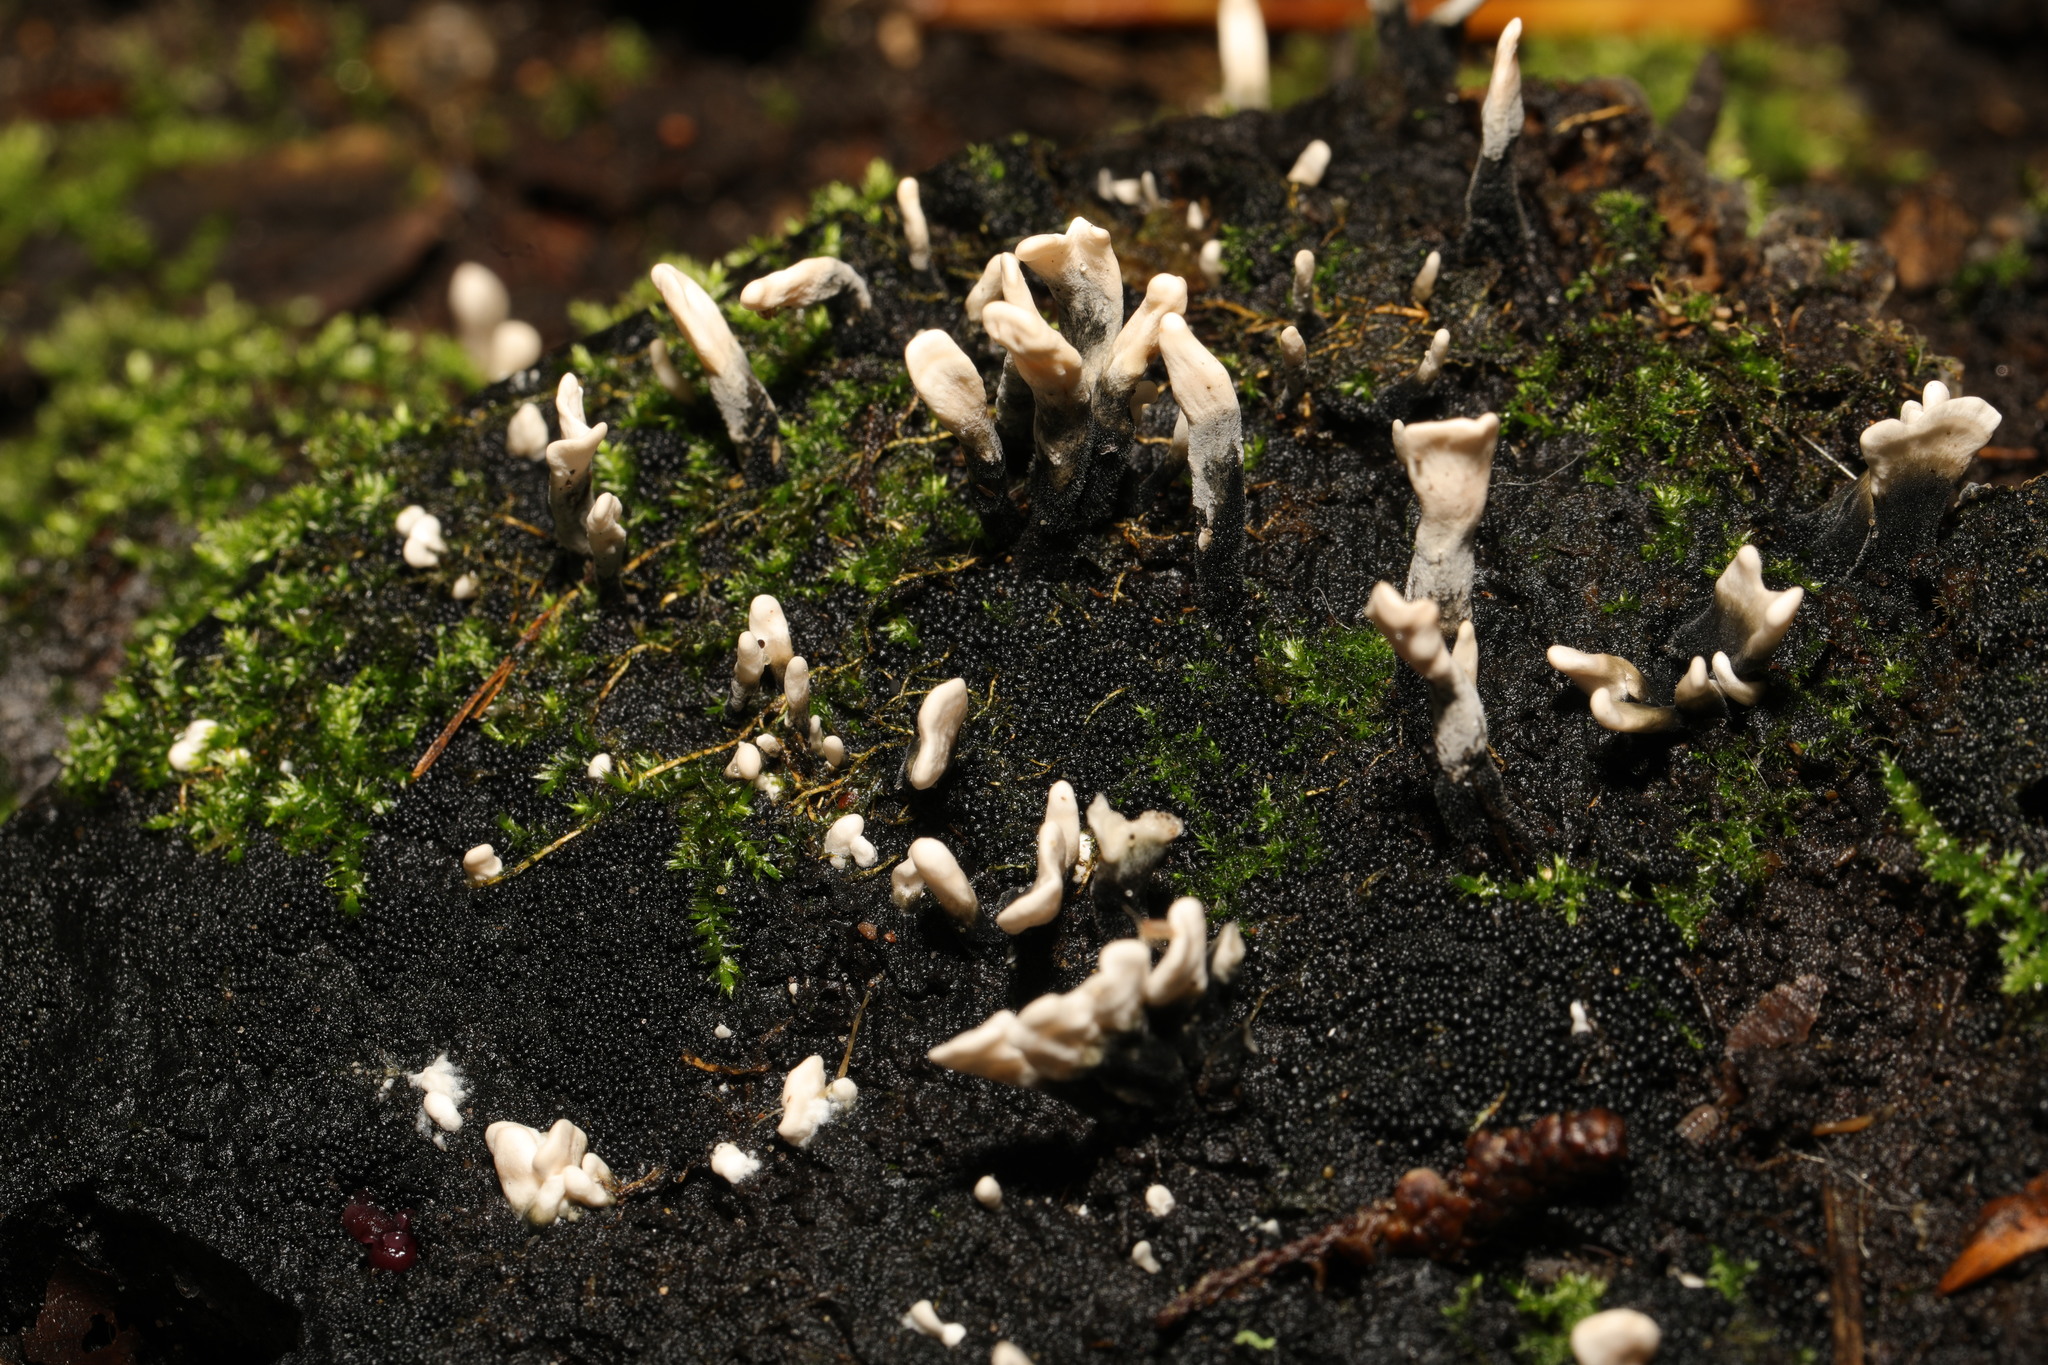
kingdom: Fungi
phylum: Ascomycota
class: Sordariomycetes
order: Xylariales
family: Xylariaceae
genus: Xylaria
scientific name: Xylaria hypoxylon
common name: Candle-snuff fungus
